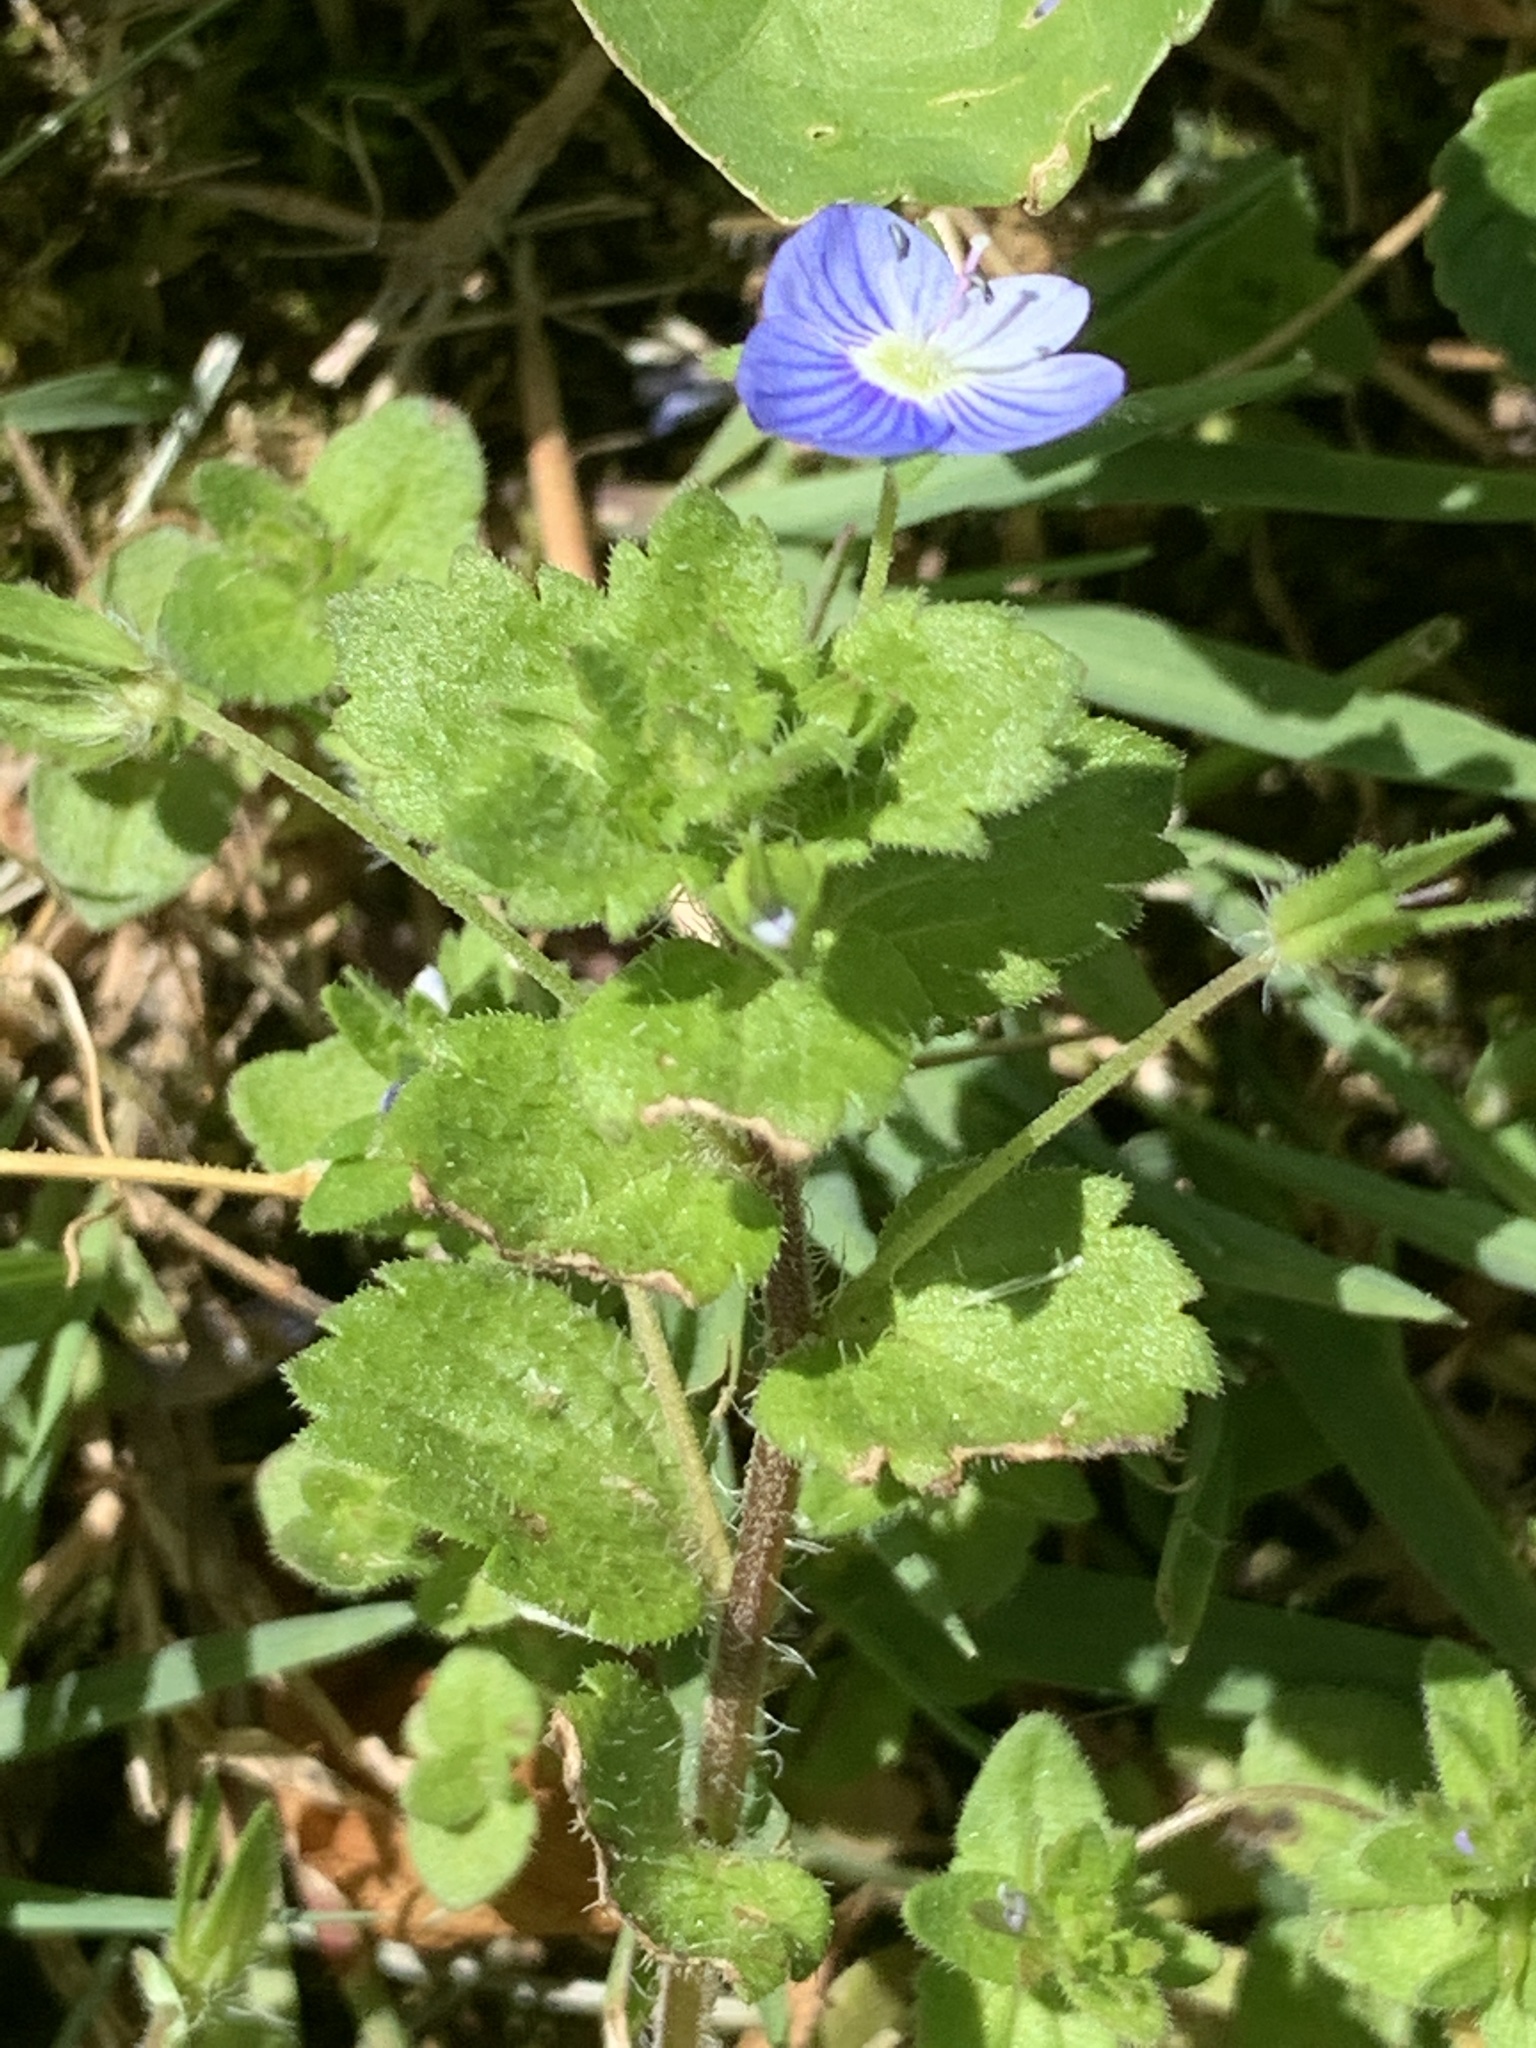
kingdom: Plantae
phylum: Tracheophyta
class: Magnoliopsida
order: Lamiales
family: Plantaginaceae
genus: Veronica
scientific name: Veronica persica
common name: Common field-speedwell
